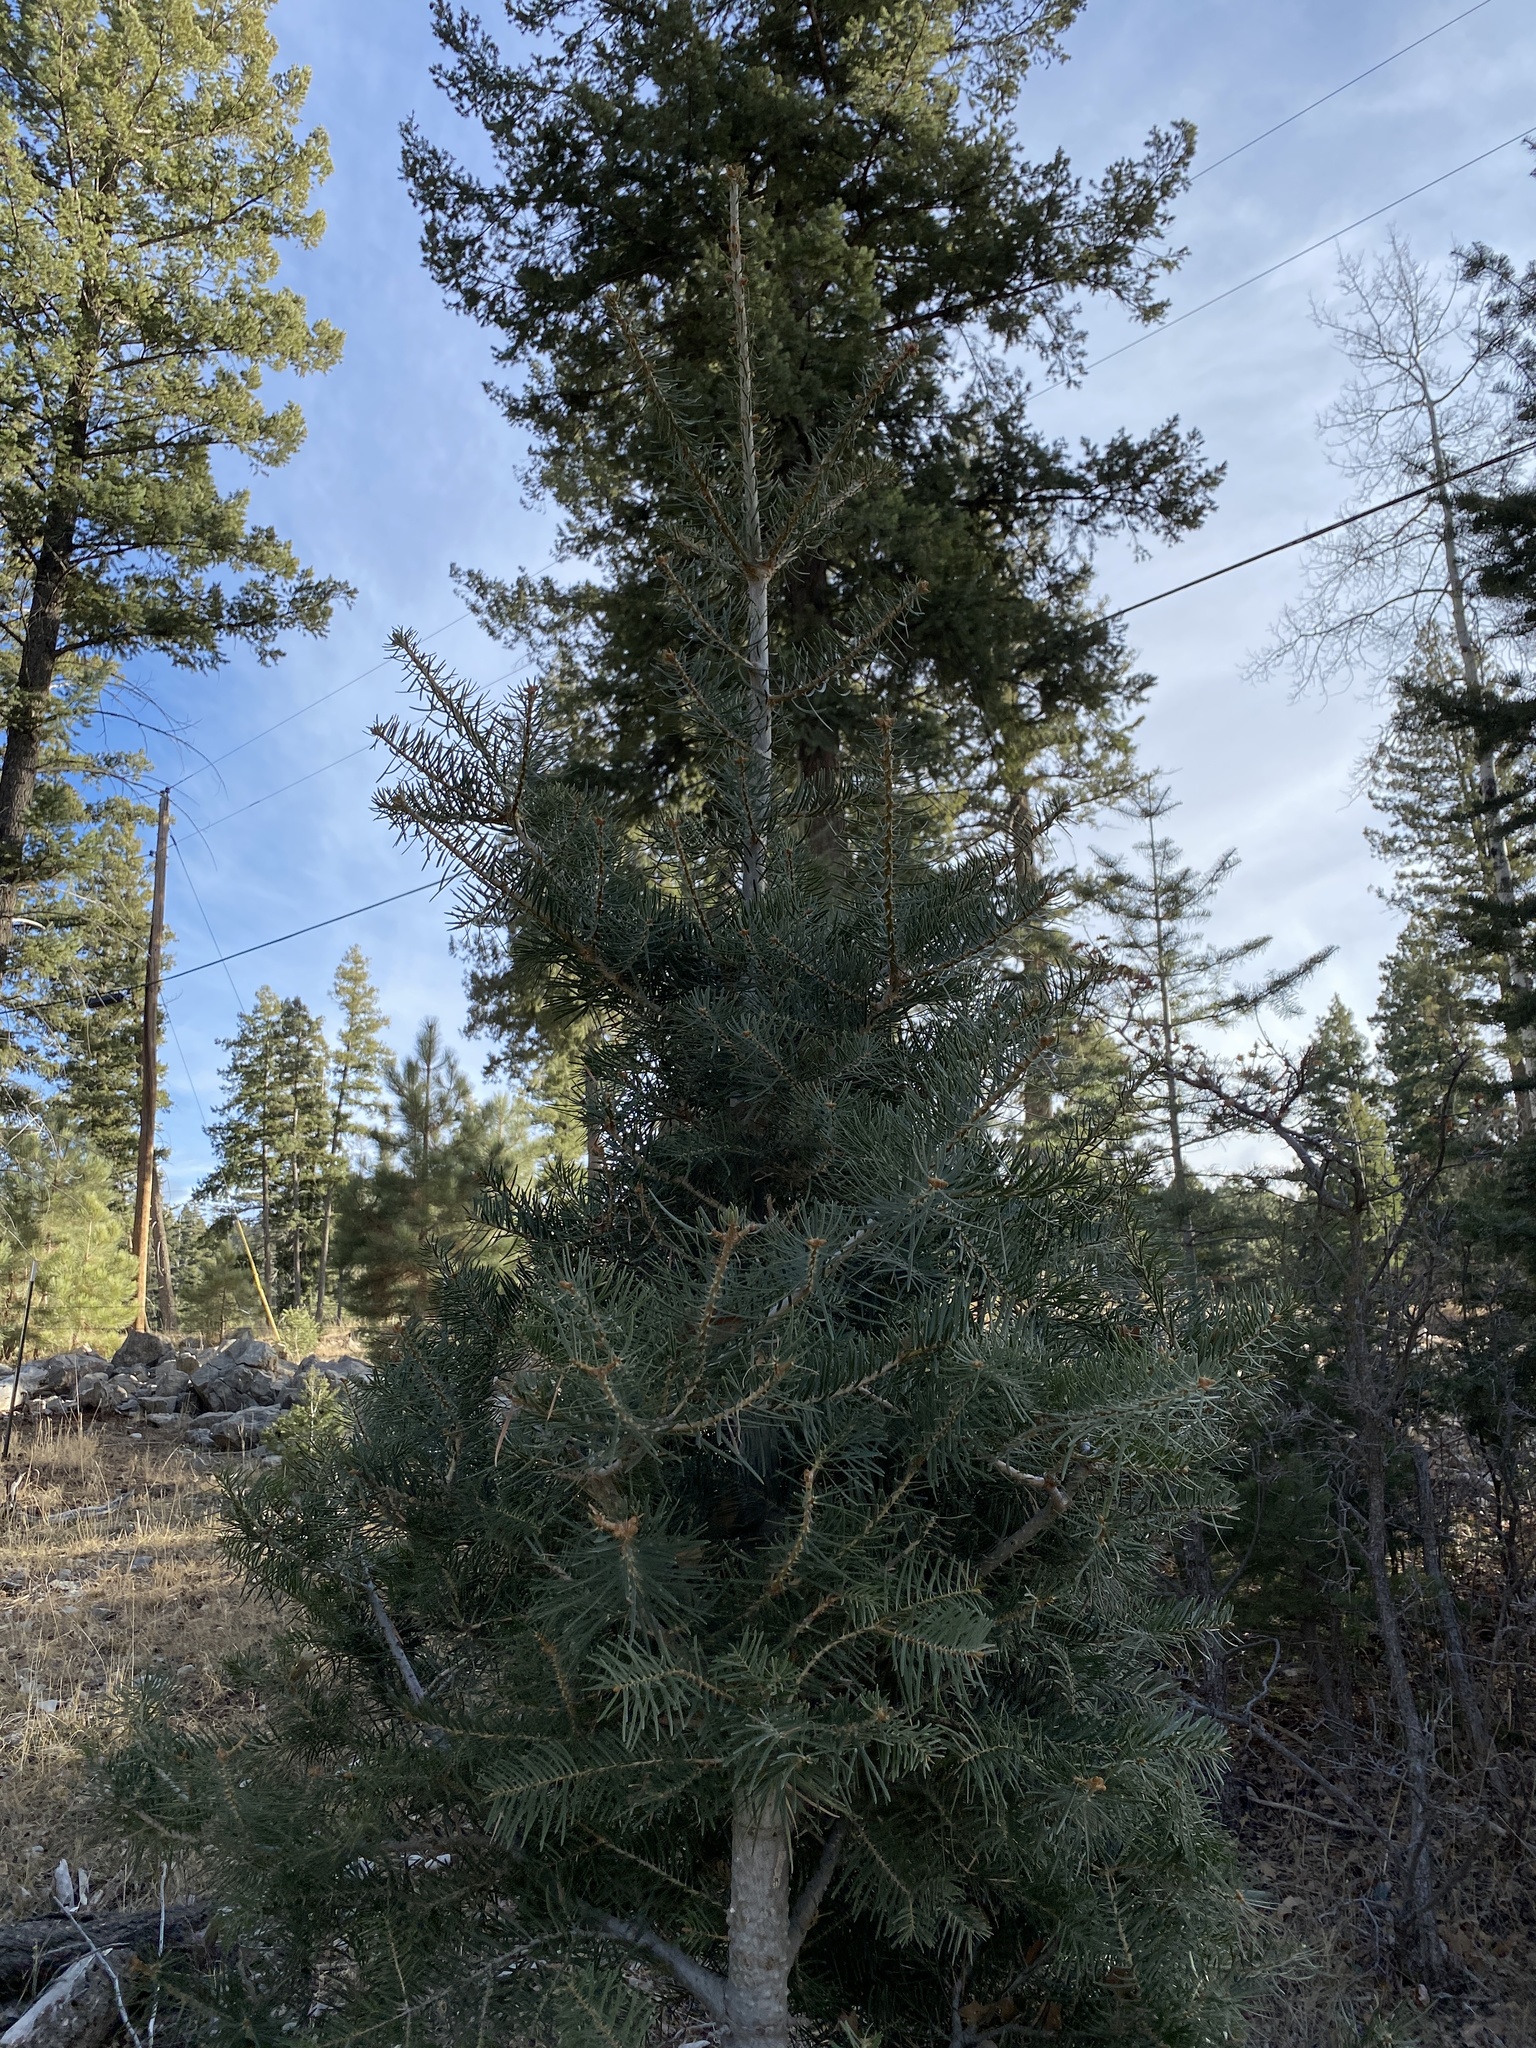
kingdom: Plantae
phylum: Tracheophyta
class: Pinopsida
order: Pinales
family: Pinaceae
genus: Abies
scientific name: Abies concolor
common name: Colorado fir
